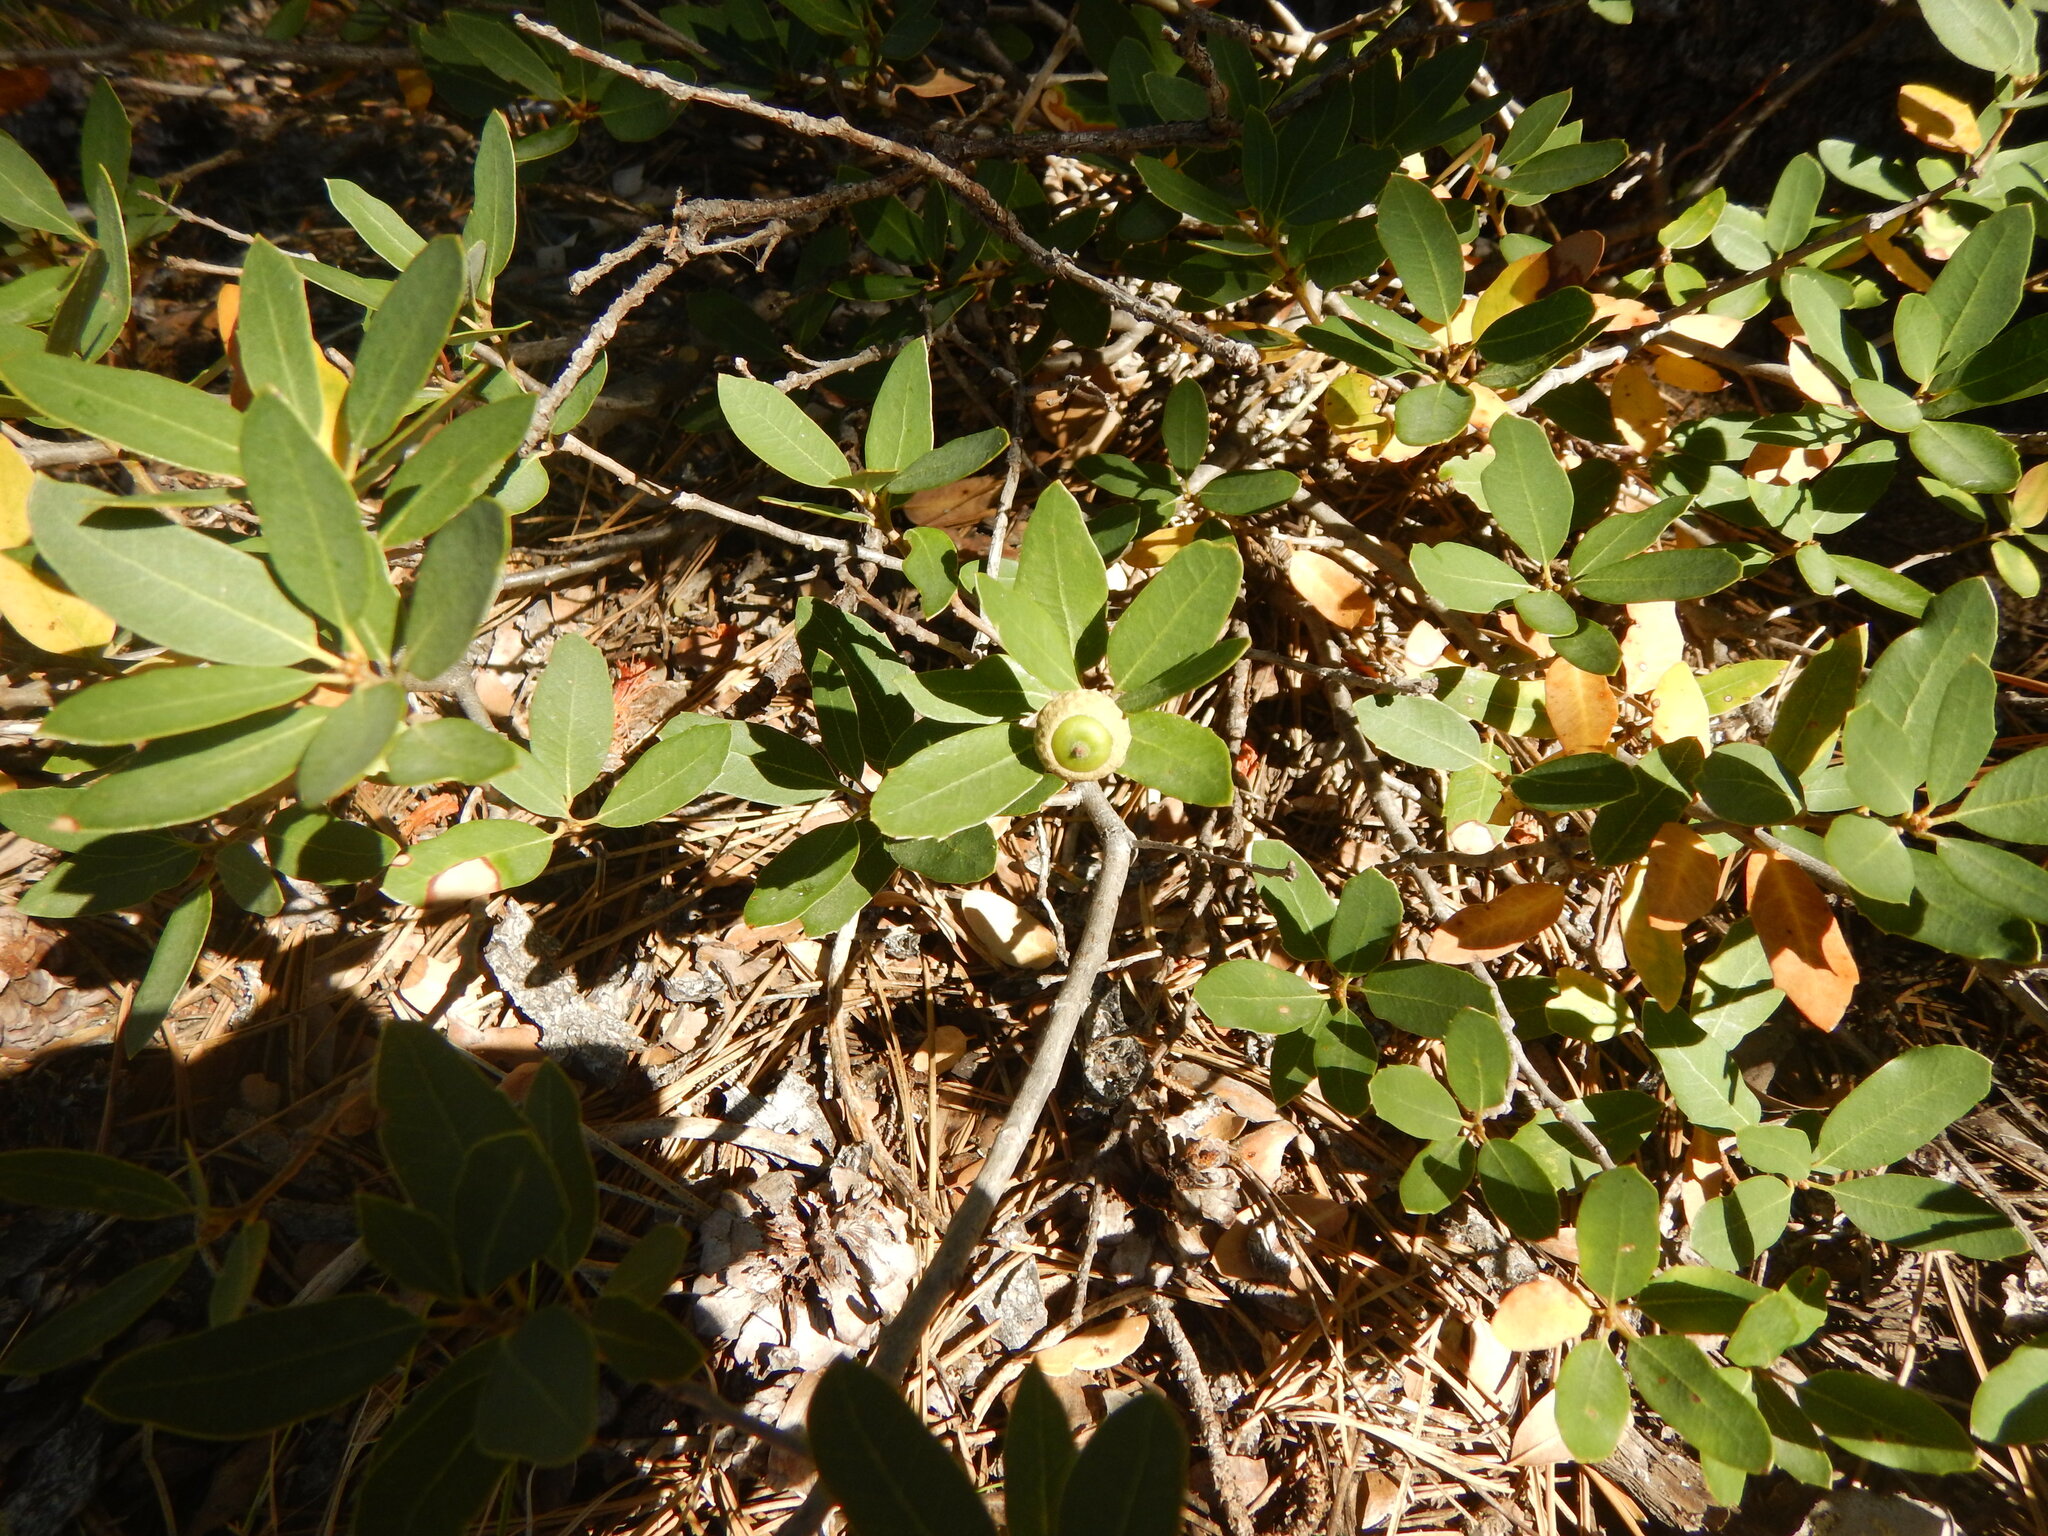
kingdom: Plantae
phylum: Tracheophyta
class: Magnoliopsida
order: Fagales
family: Fagaceae
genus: Quercus
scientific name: Quercus vacciniifolia
